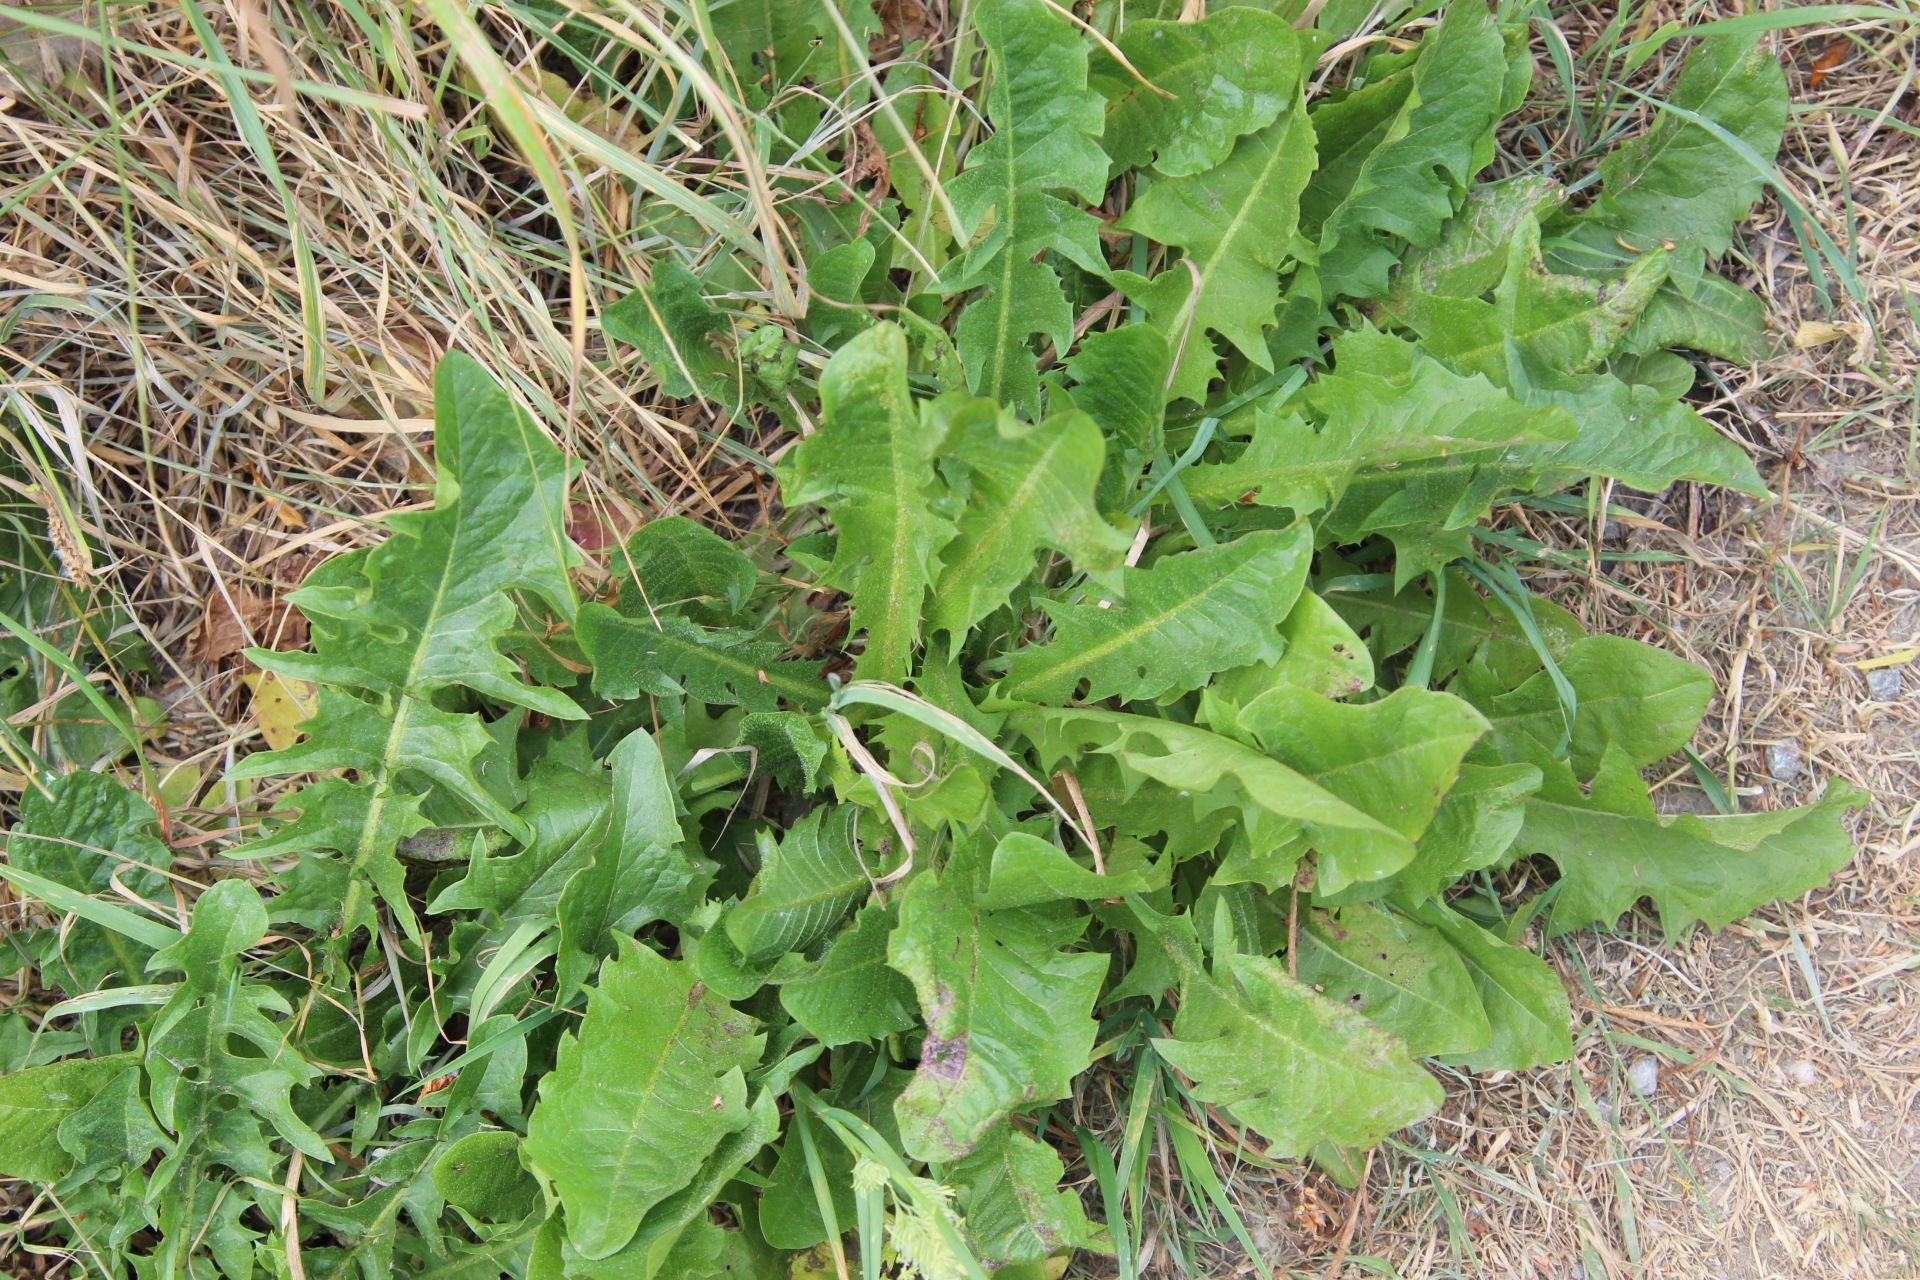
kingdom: Plantae
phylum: Tracheophyta
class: Magnoliopsida
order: Asterales
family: Asteraceae
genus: Taraxacum
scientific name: Taraxacum officinale
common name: Common dandelion
